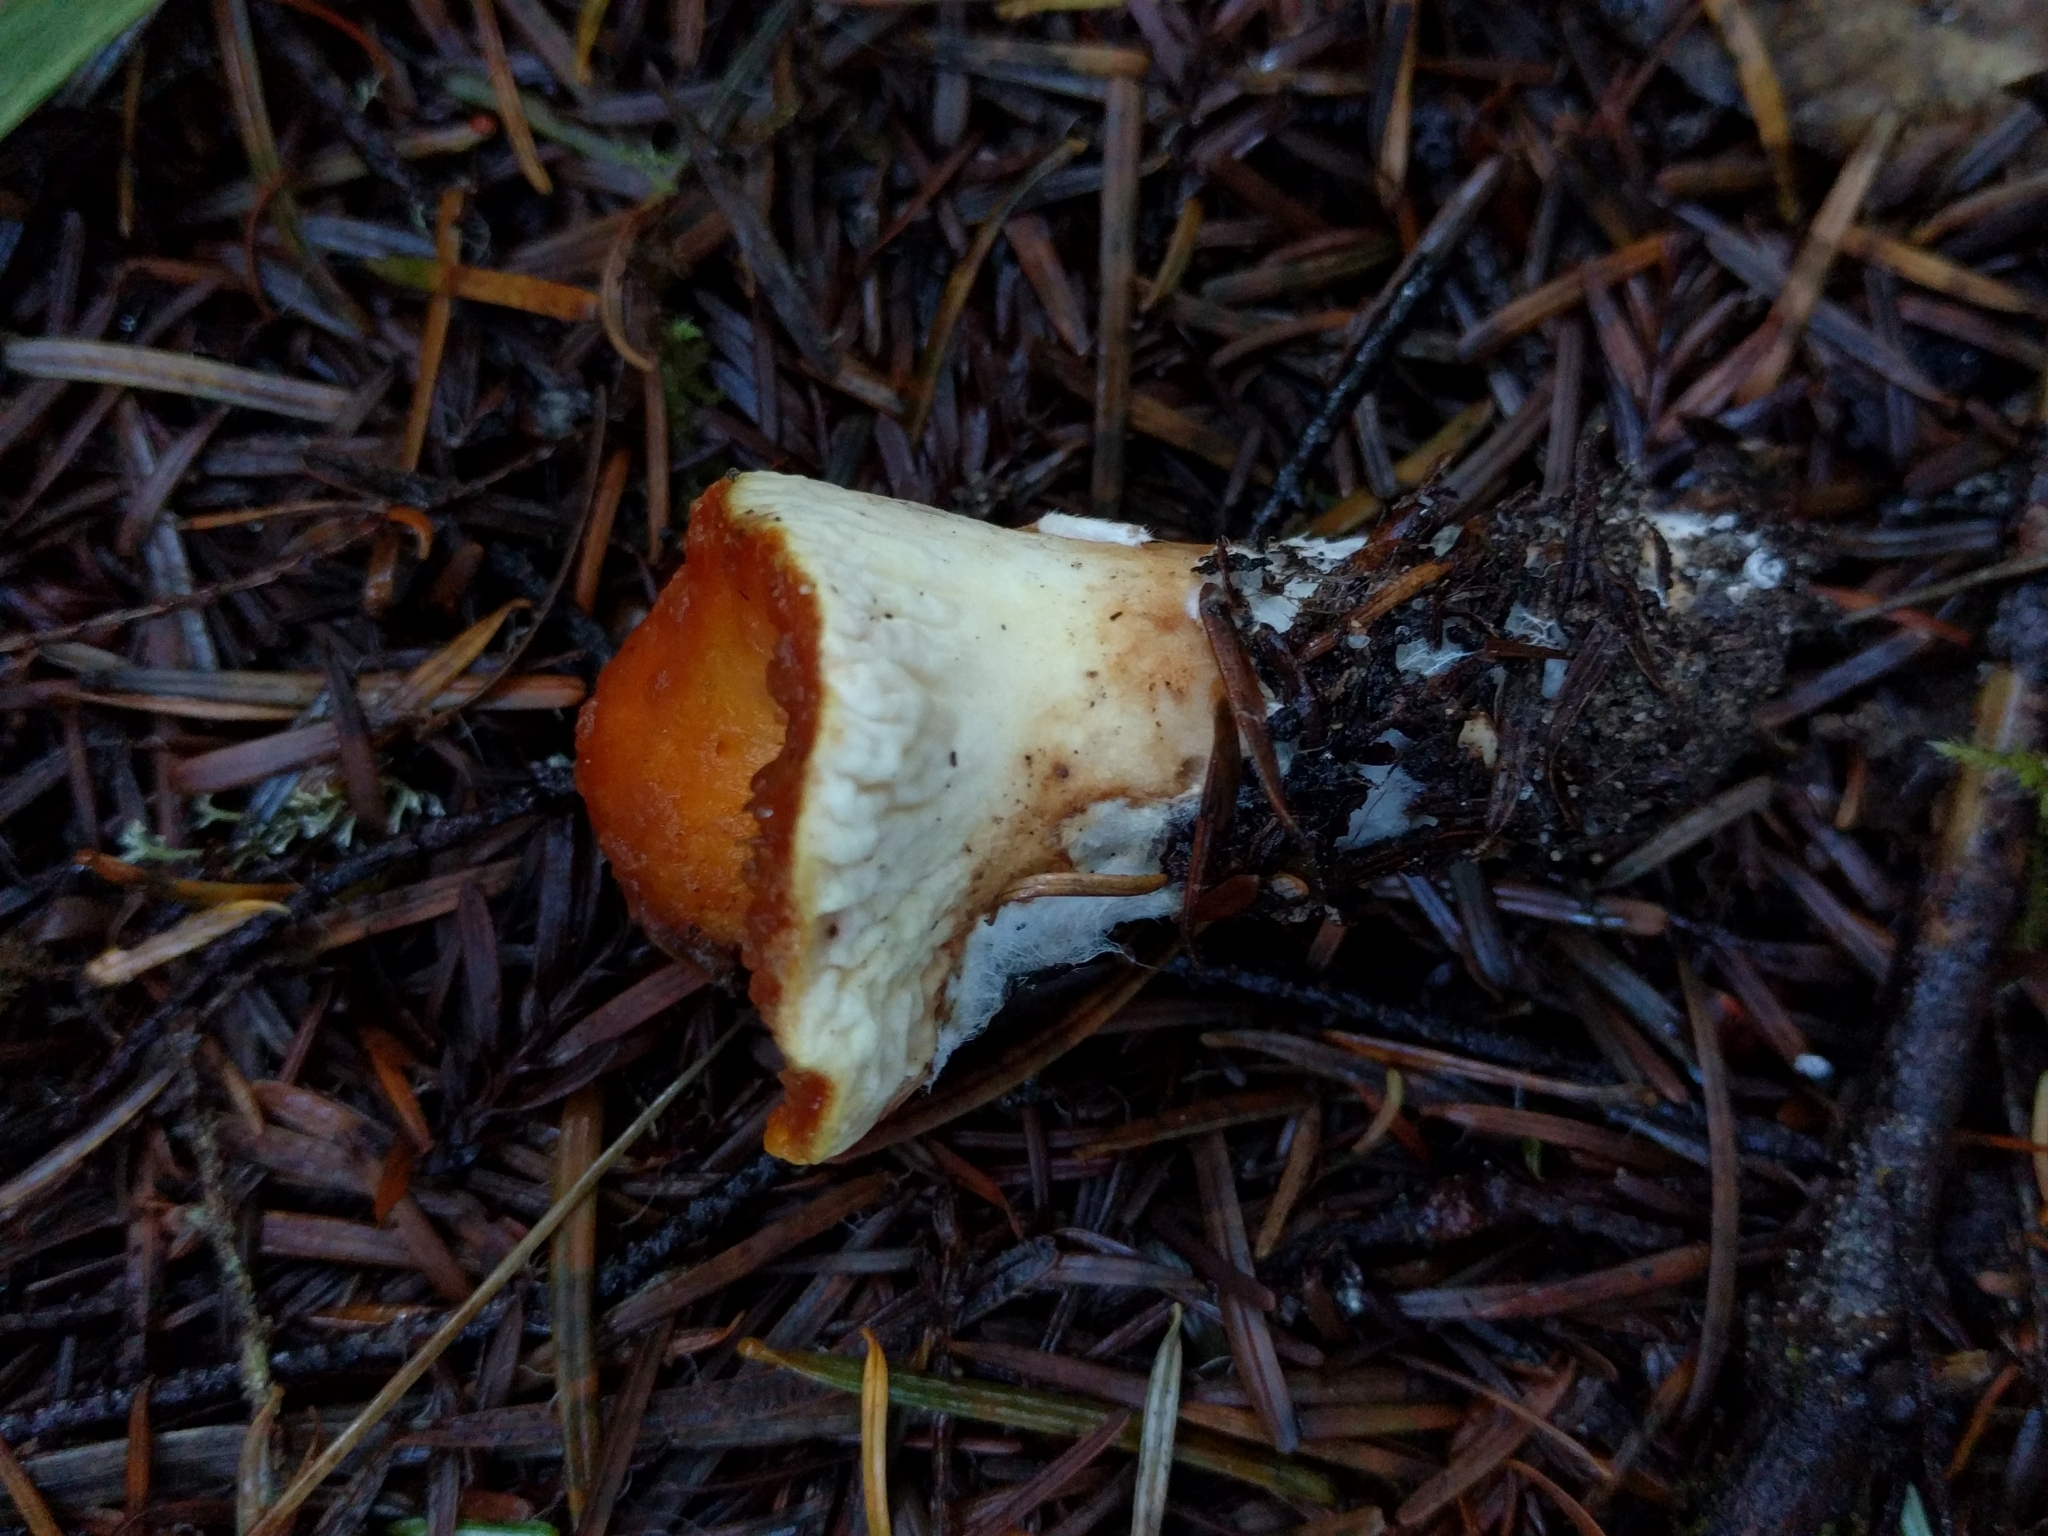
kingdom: Fungi
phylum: Basidiomycota
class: Agaricomycetes
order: Gomphales
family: Gomphaceae
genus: Turbinellus
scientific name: Turbinellus floccosus
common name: Scaly chanterelle
